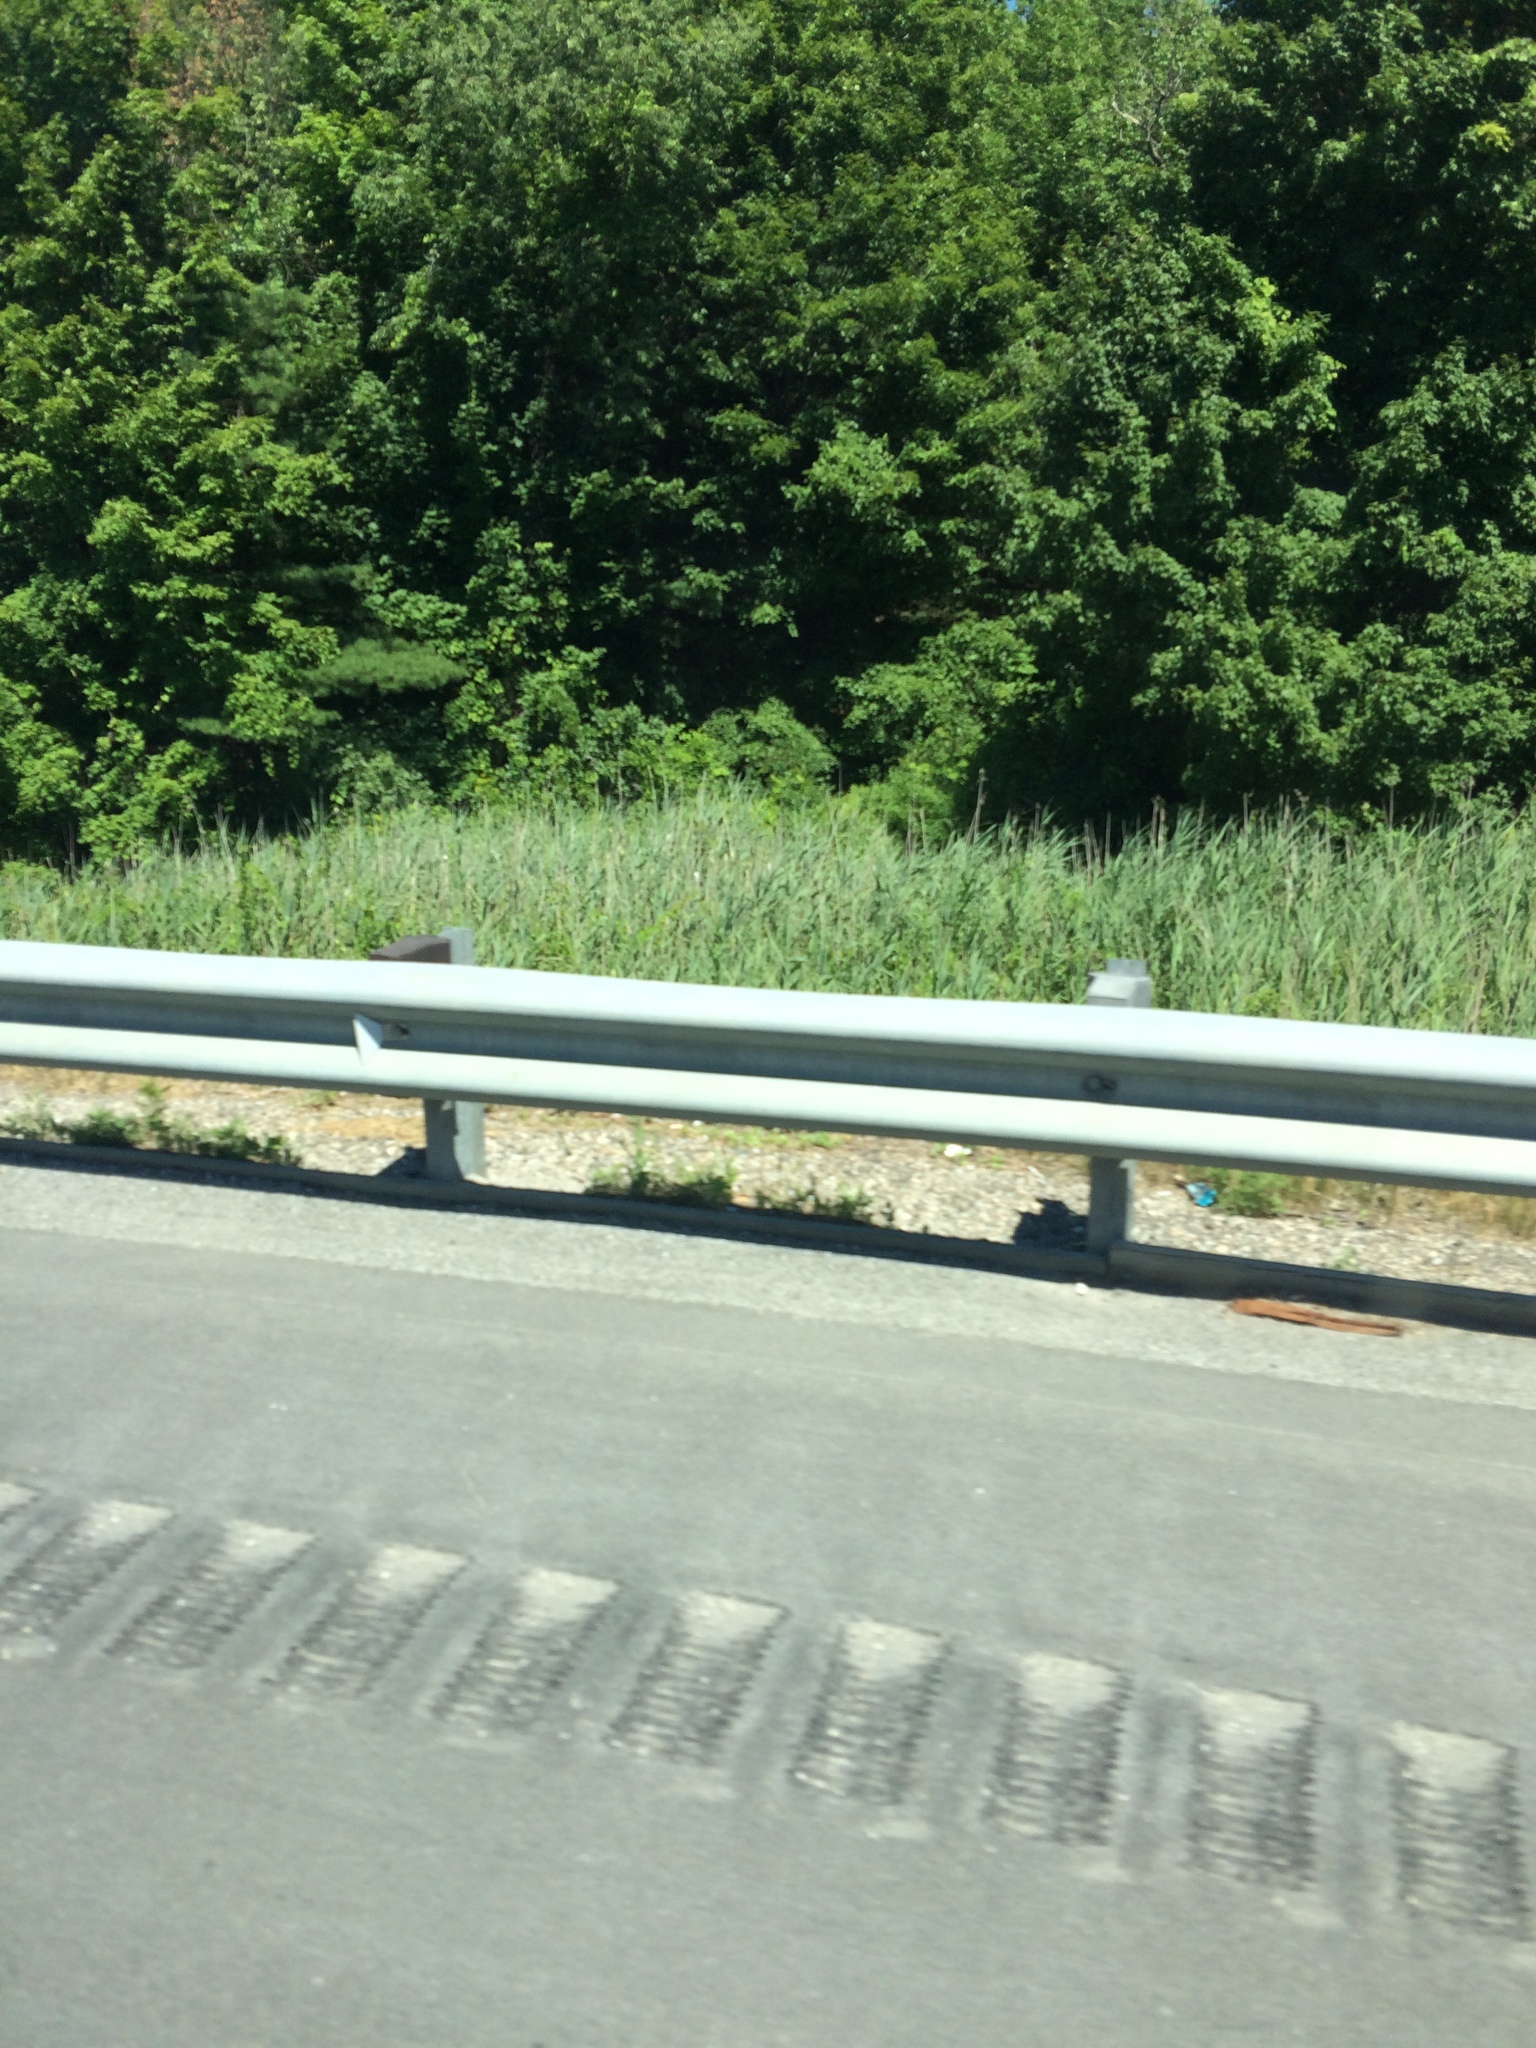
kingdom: Plantae
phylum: Tracheophyta
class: Liliopsida
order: Poales
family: Poaceae
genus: Phragmites
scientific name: Phragmites australis
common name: Common reed
